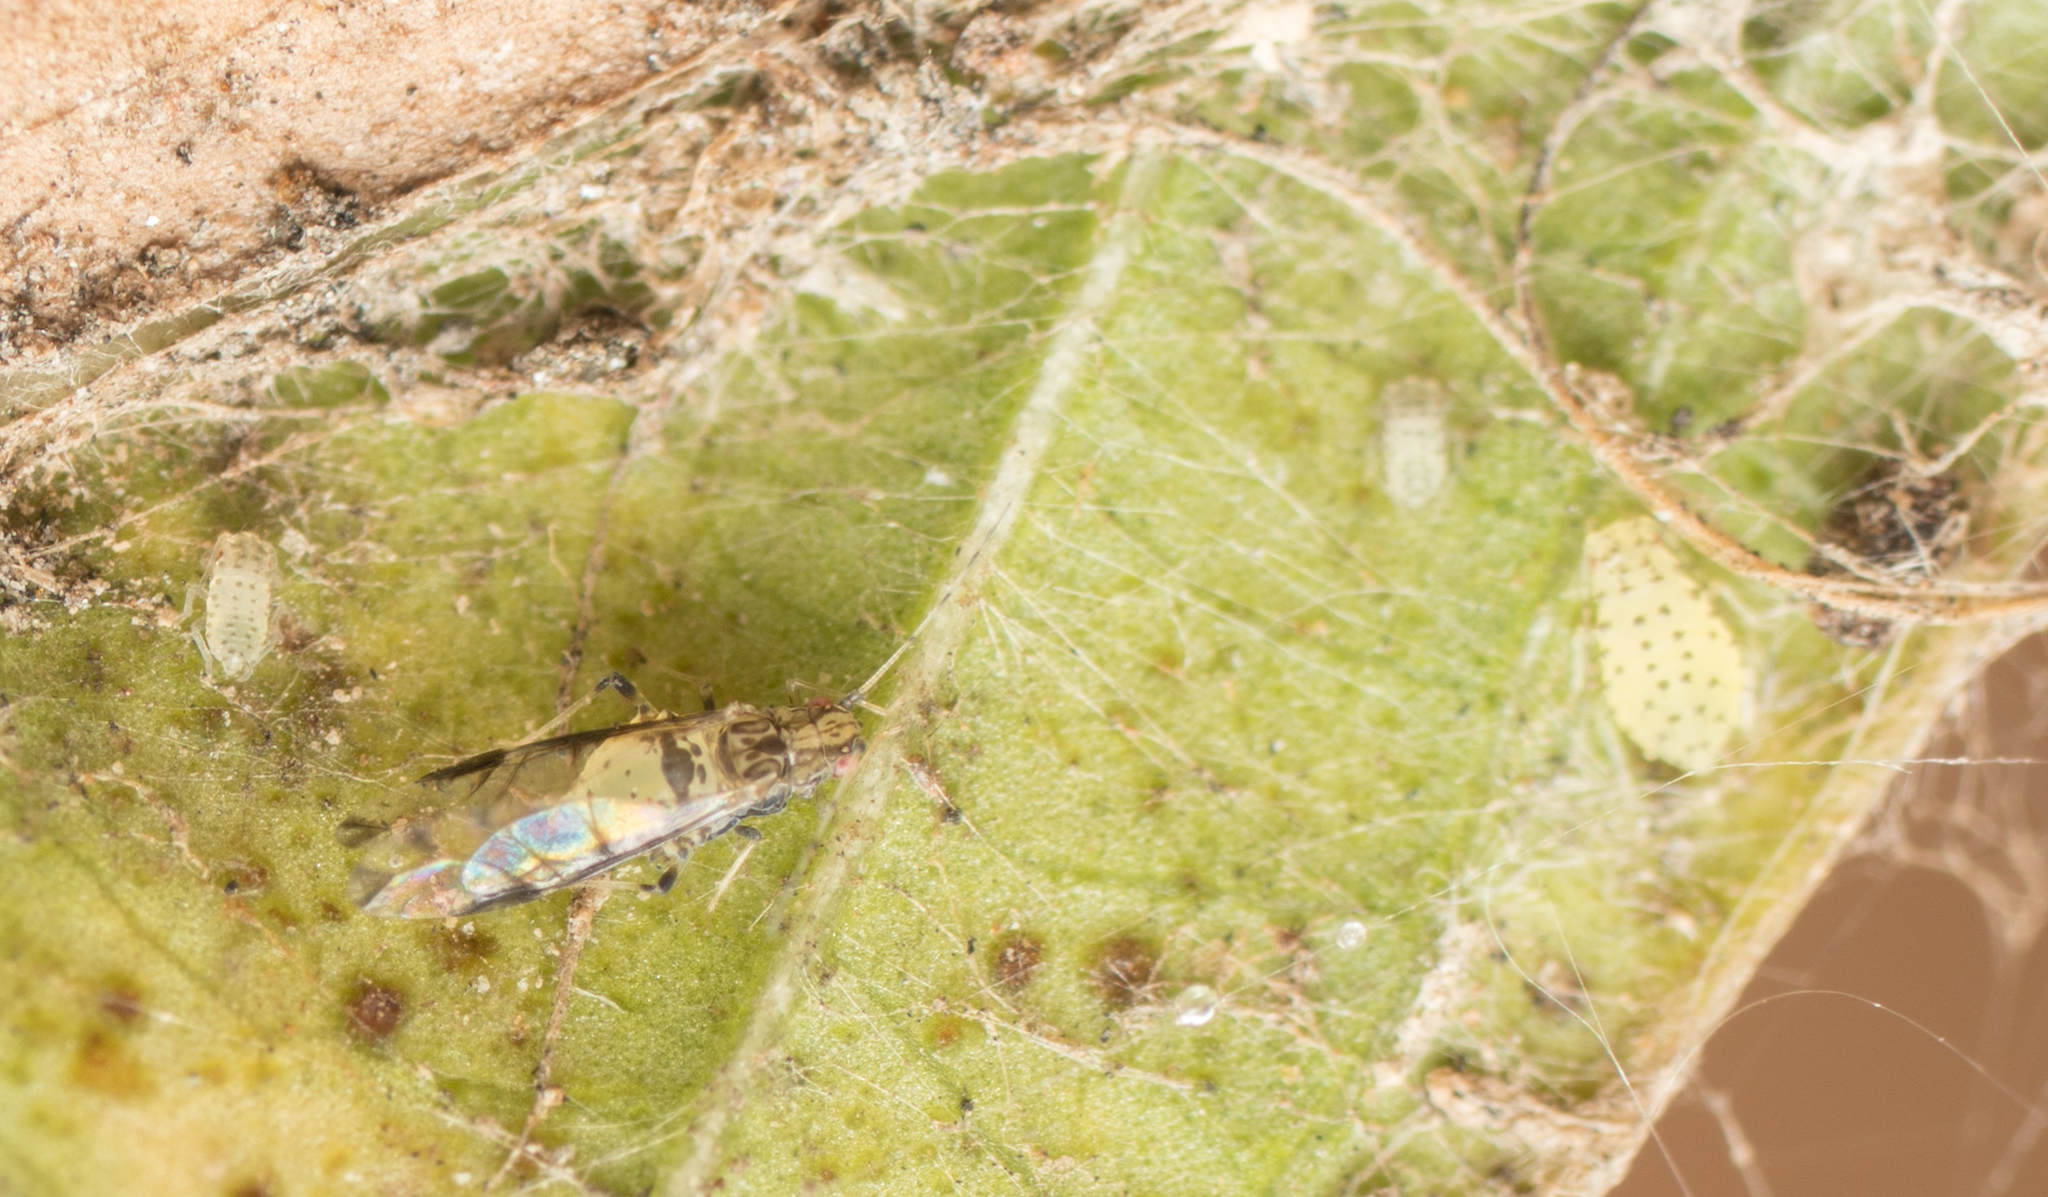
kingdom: Animalia
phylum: Arthropoda
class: Insecta
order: Hemiptera
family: Aphididae
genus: Sarucallis
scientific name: Sarucallis kahawaluokalani
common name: Crapemyrtle aphid
